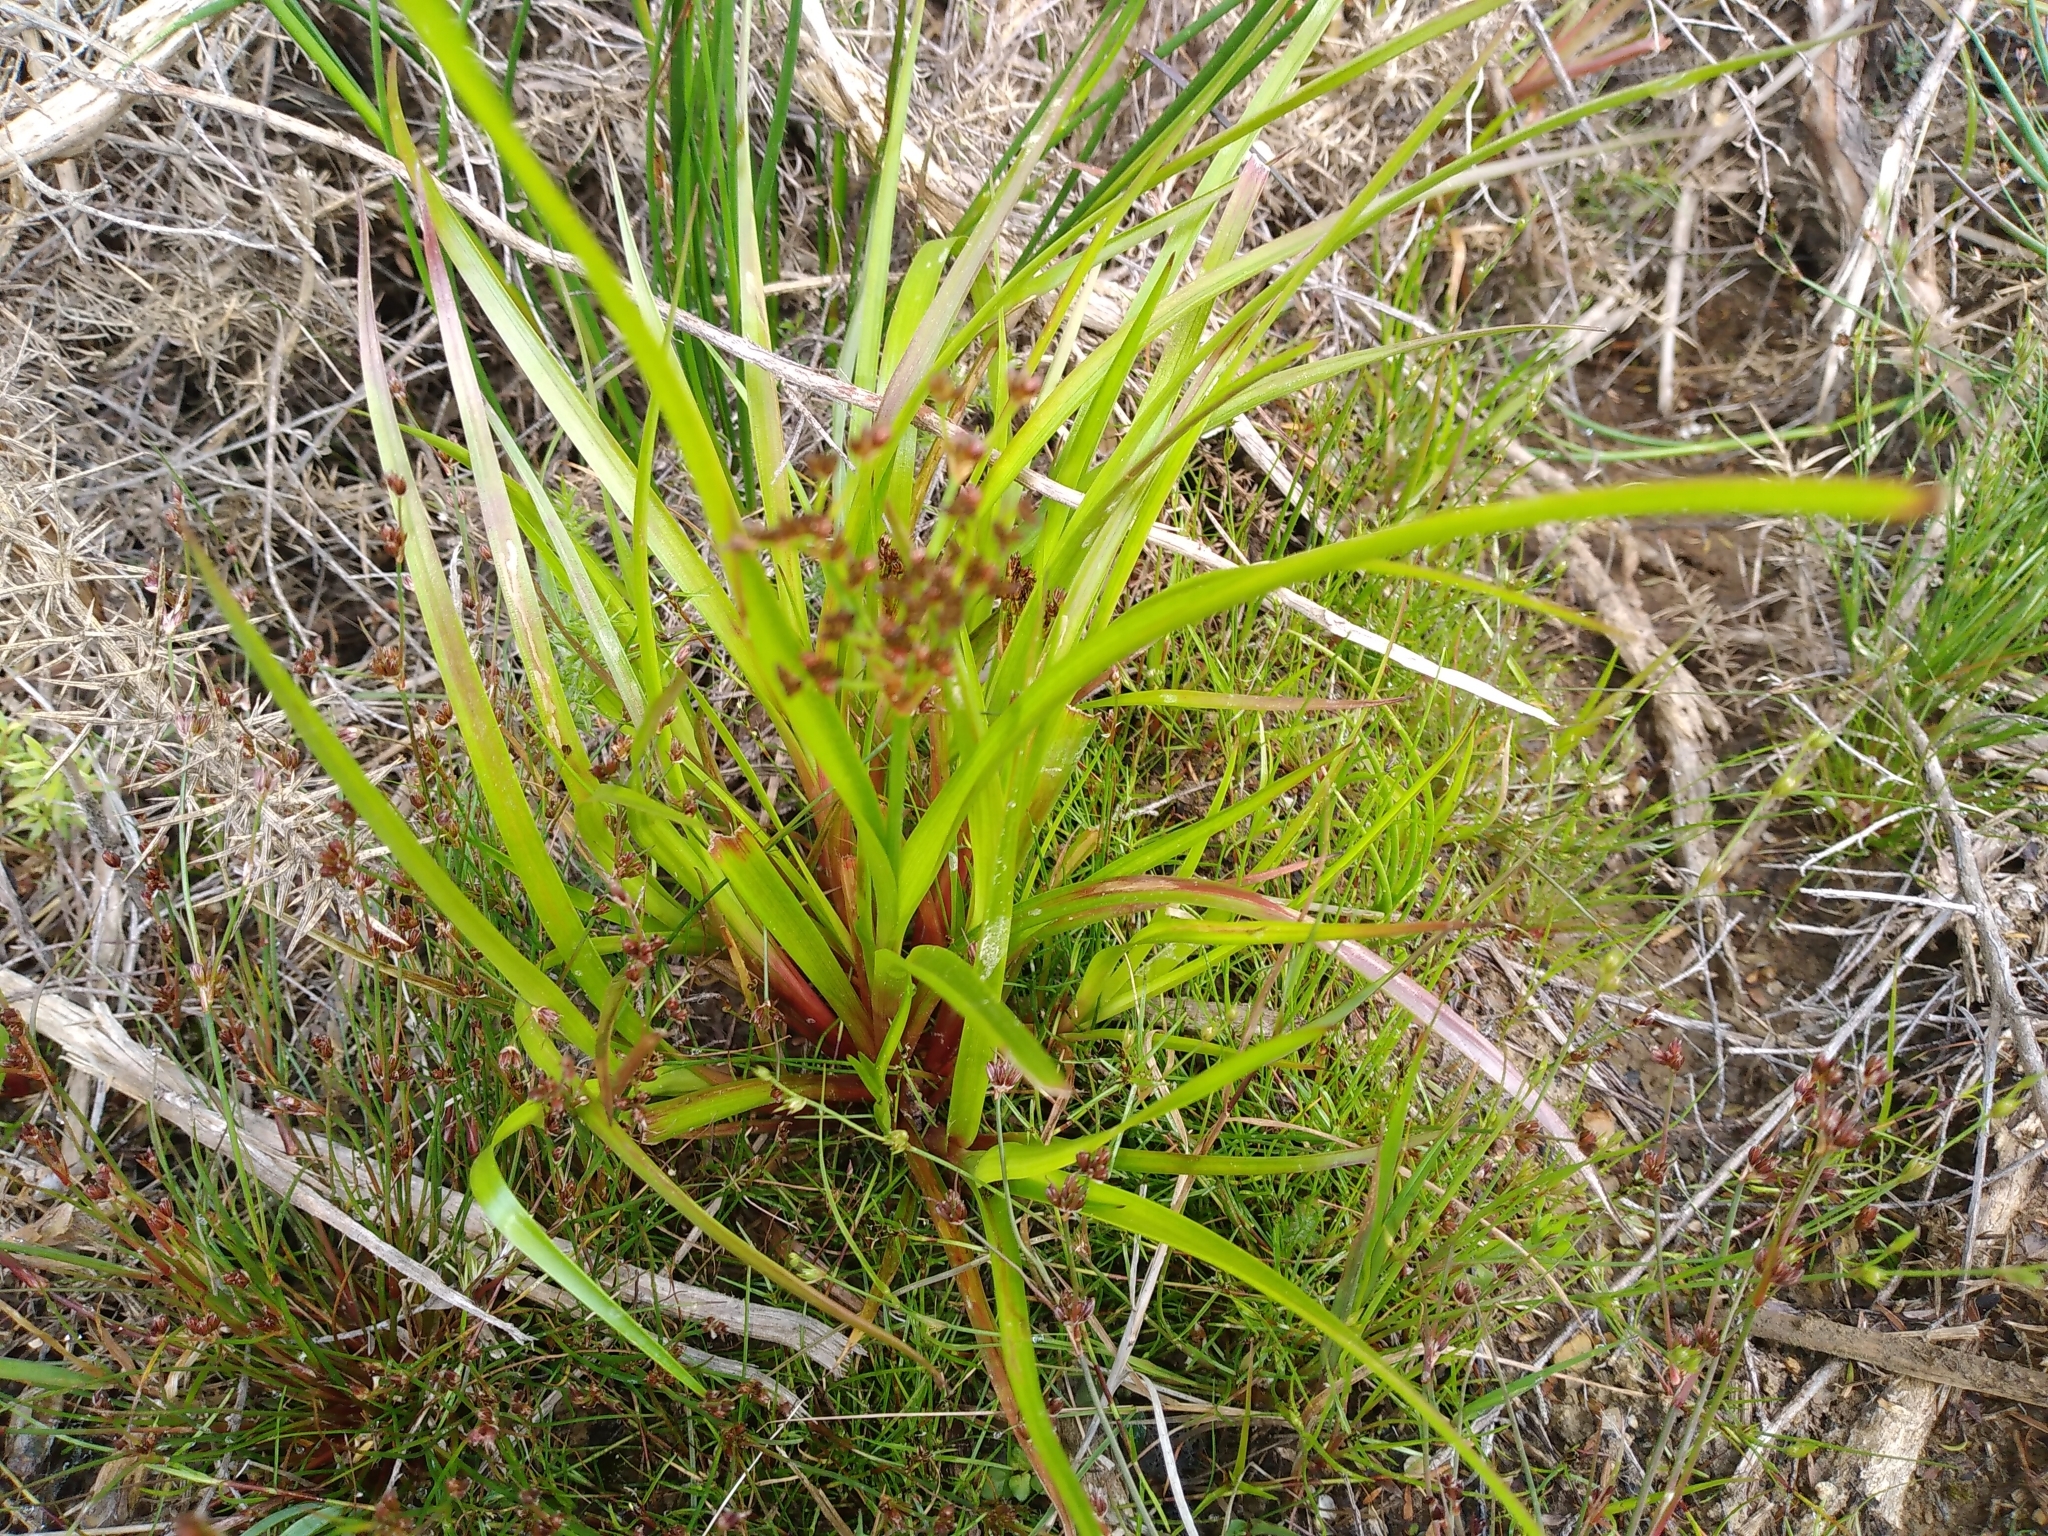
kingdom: Plantae
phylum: Tracheophyta
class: Liliopsida
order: Poales
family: Juncaceae
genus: Juncus
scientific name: Juncus planifolius
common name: Broadleaf rush
